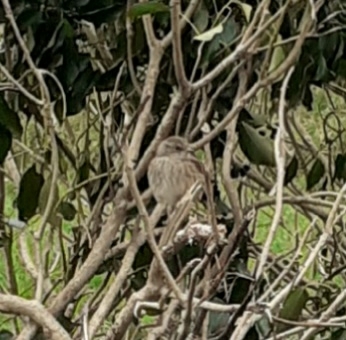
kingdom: Animalia
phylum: Chordata
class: Aves
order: Passeriformes
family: Prunellidae
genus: Prunella
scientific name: Prunella modularis
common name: Dunnock
